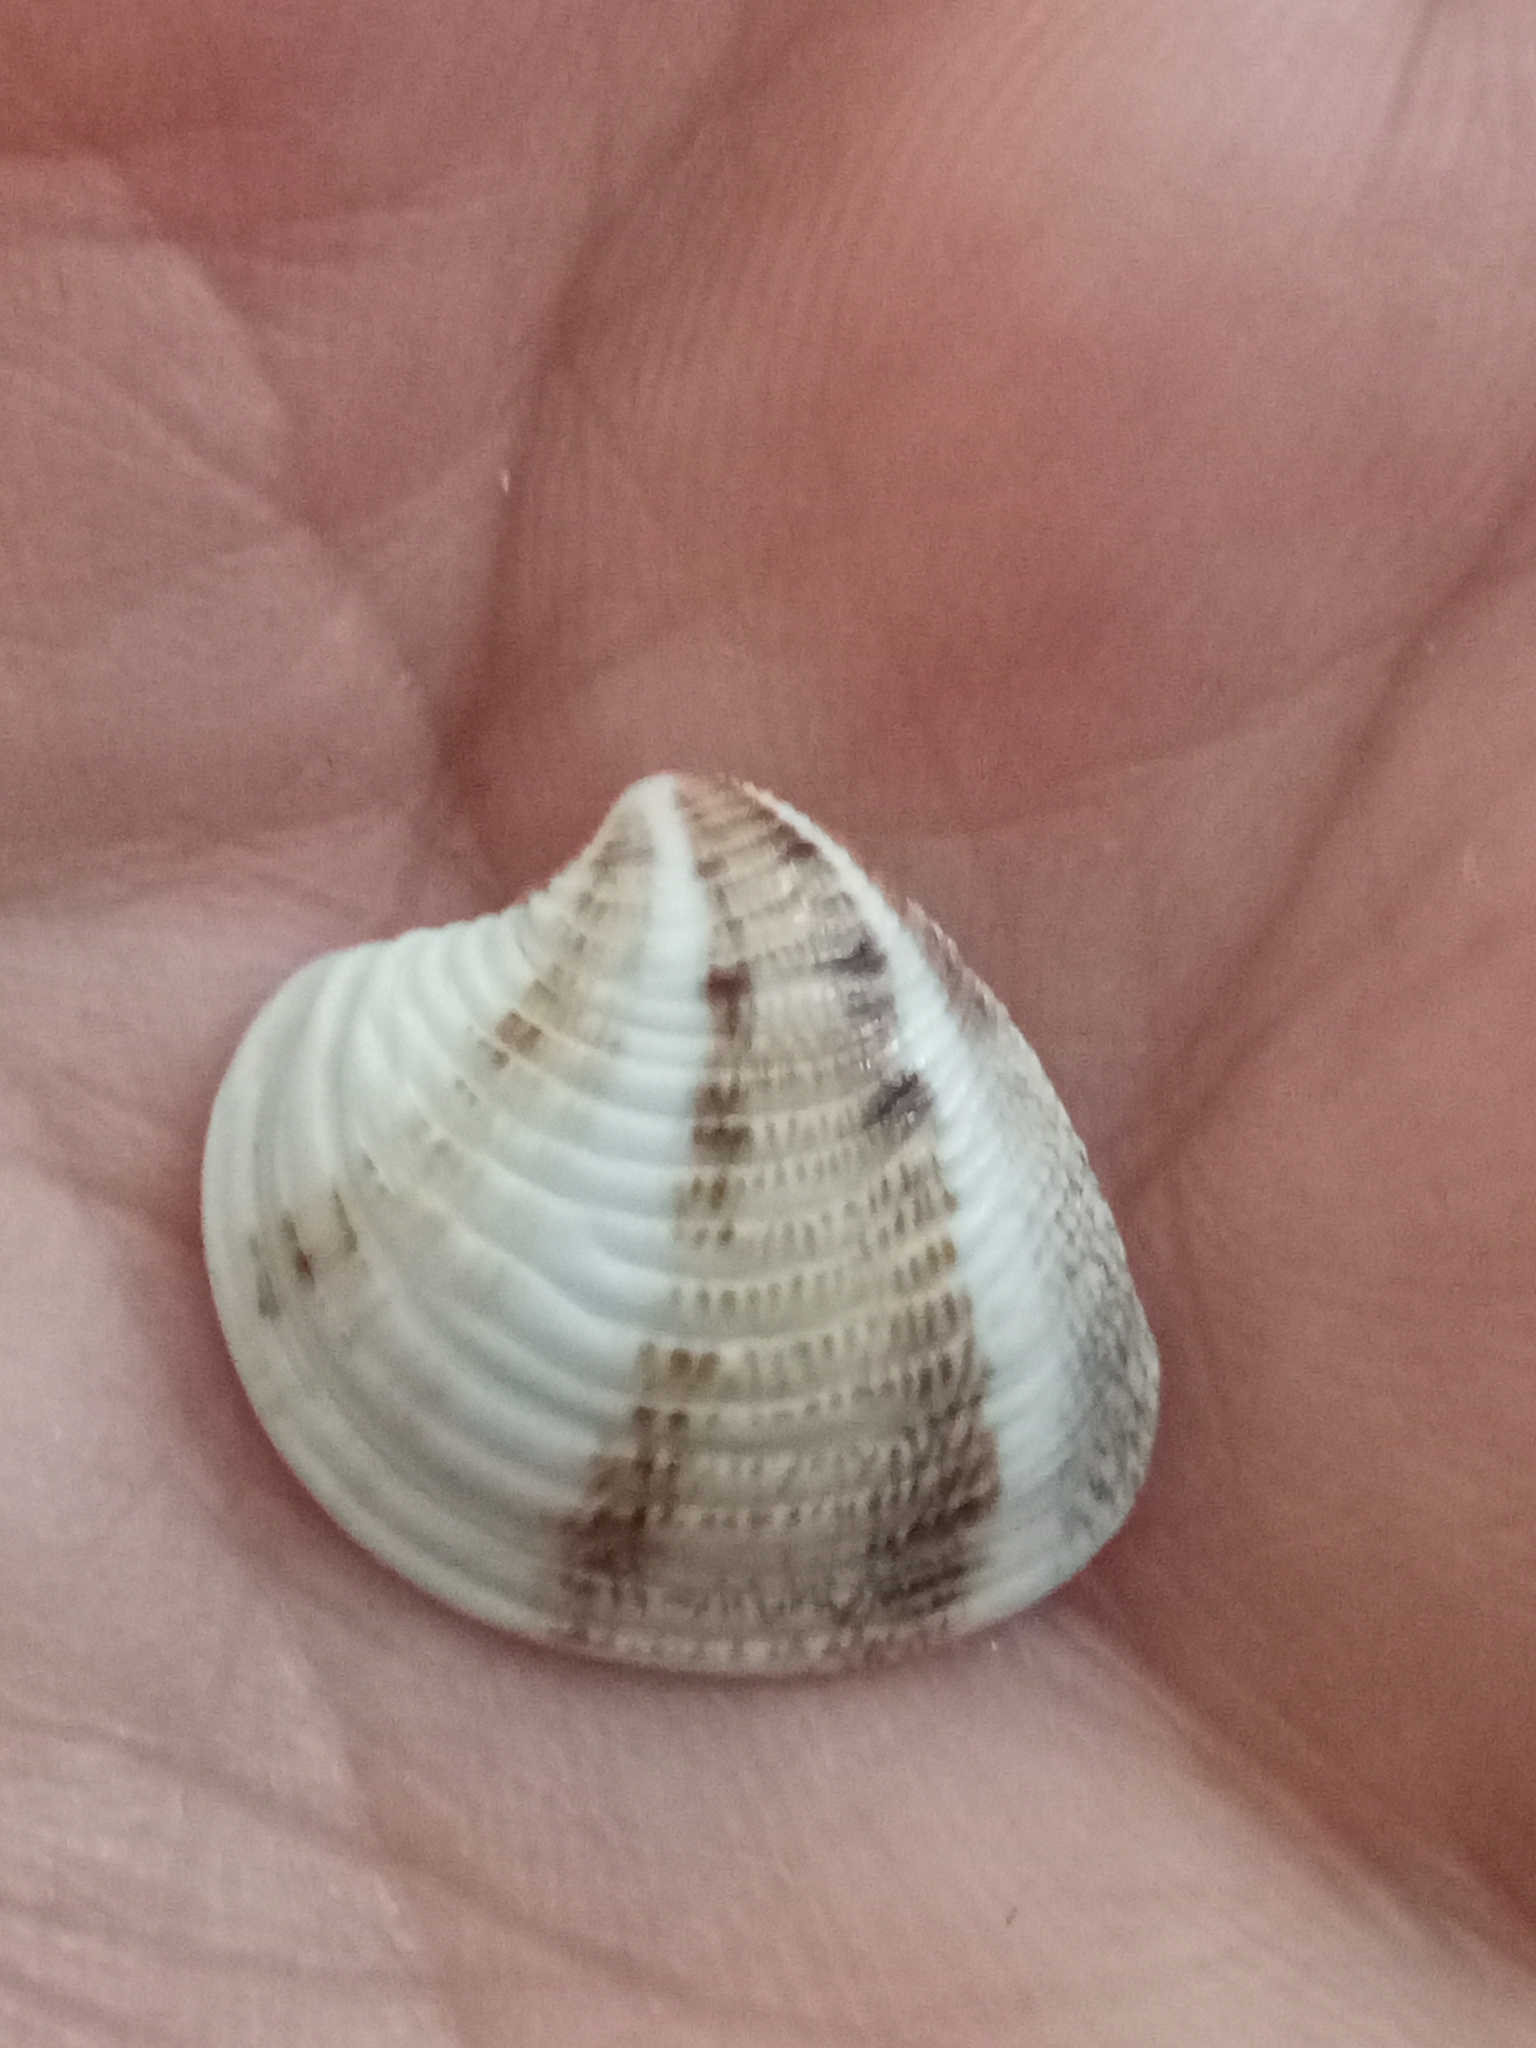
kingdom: Animalia
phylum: Mollusca
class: Bivalvia
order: Venerida
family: Veneridae
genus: Chamelea
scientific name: Chamelea gallina
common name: Chicken venus
